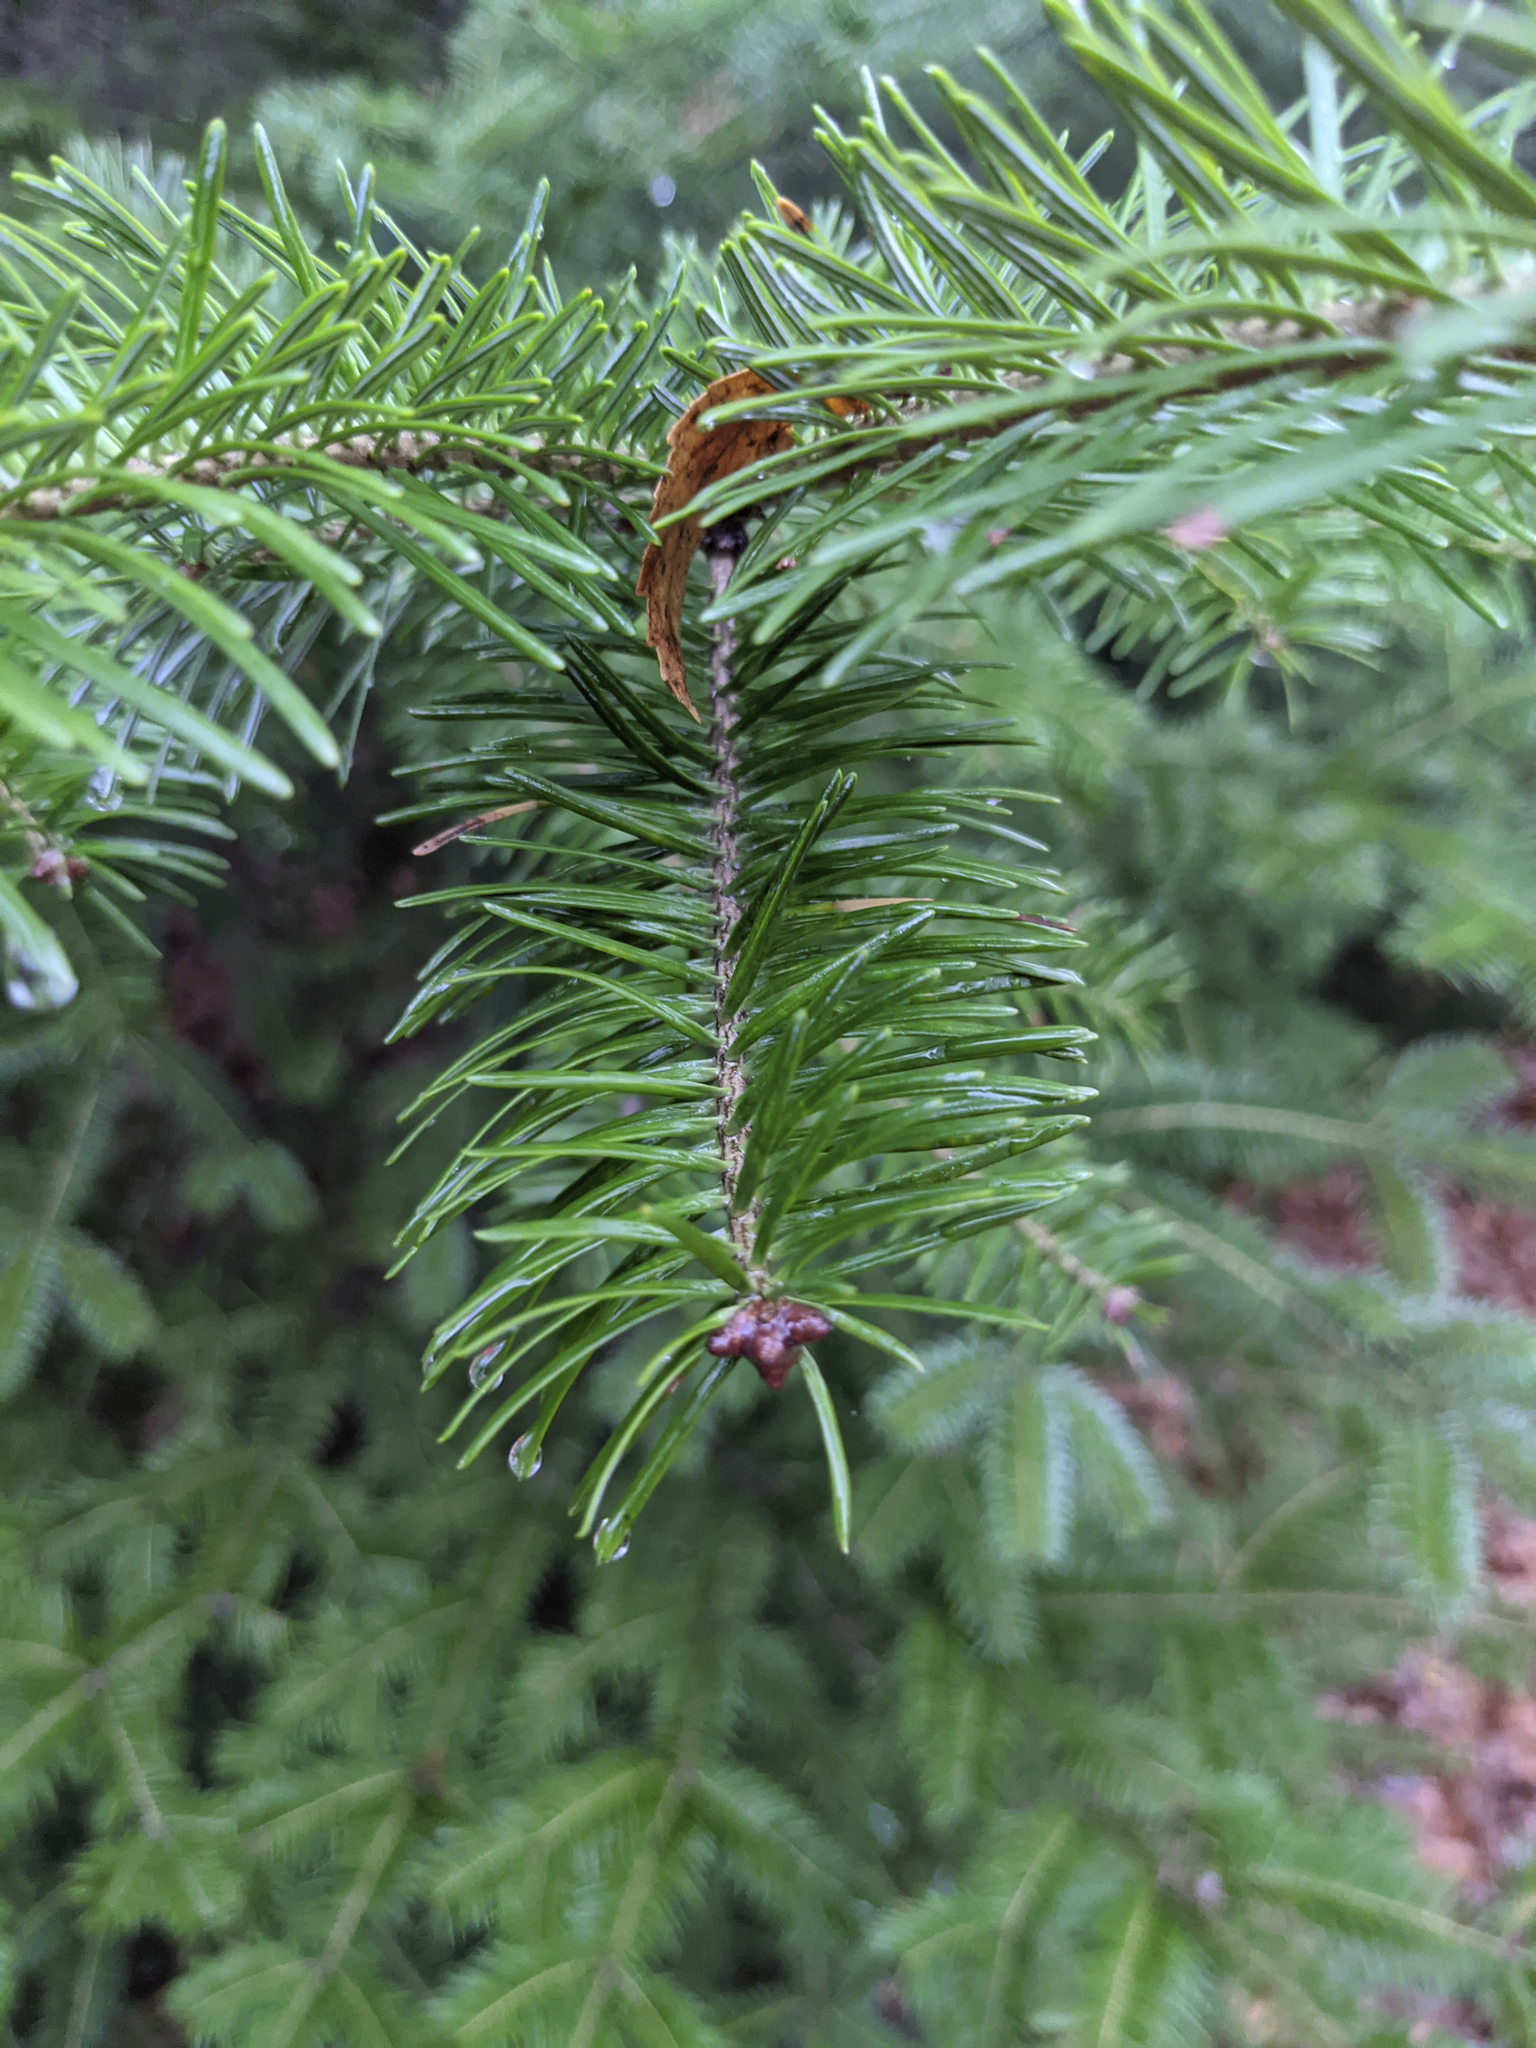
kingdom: Plantae
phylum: Tracheophyta
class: Pinopsida
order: Pinales
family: Pinaceae
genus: Abies
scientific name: Abies balsamea
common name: Balsam fir
